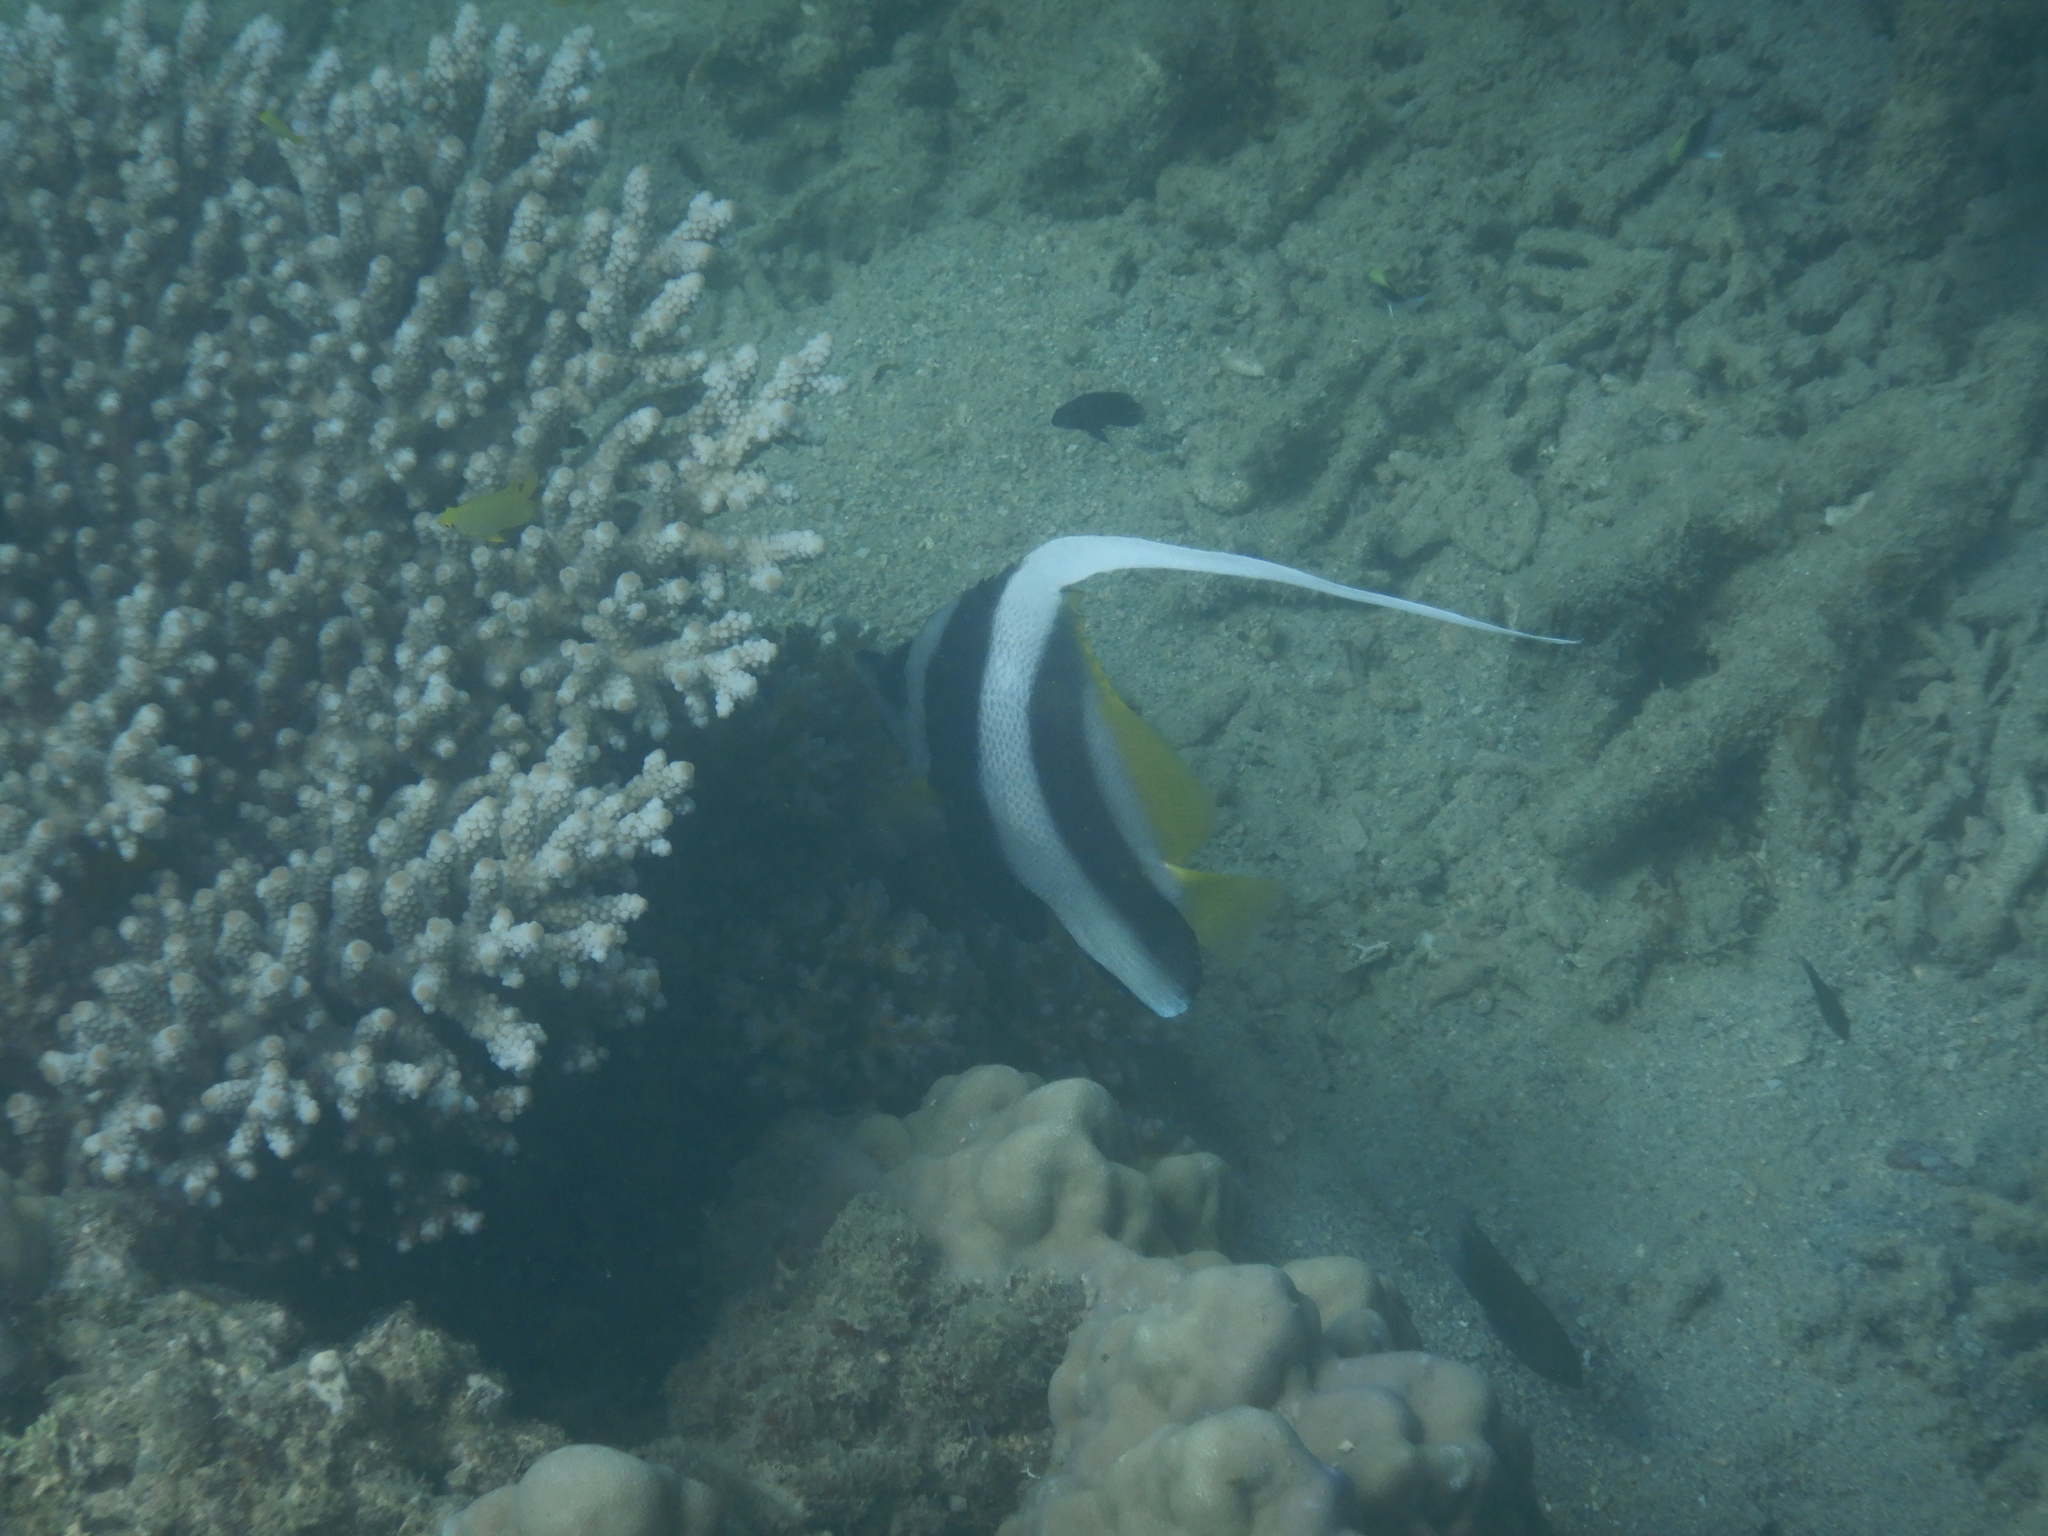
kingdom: Animalia
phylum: Chordata
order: Perciformes
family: Chaetodontidae
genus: Heniochus
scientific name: Heniochus acuminatus
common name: Pennant coralfish
